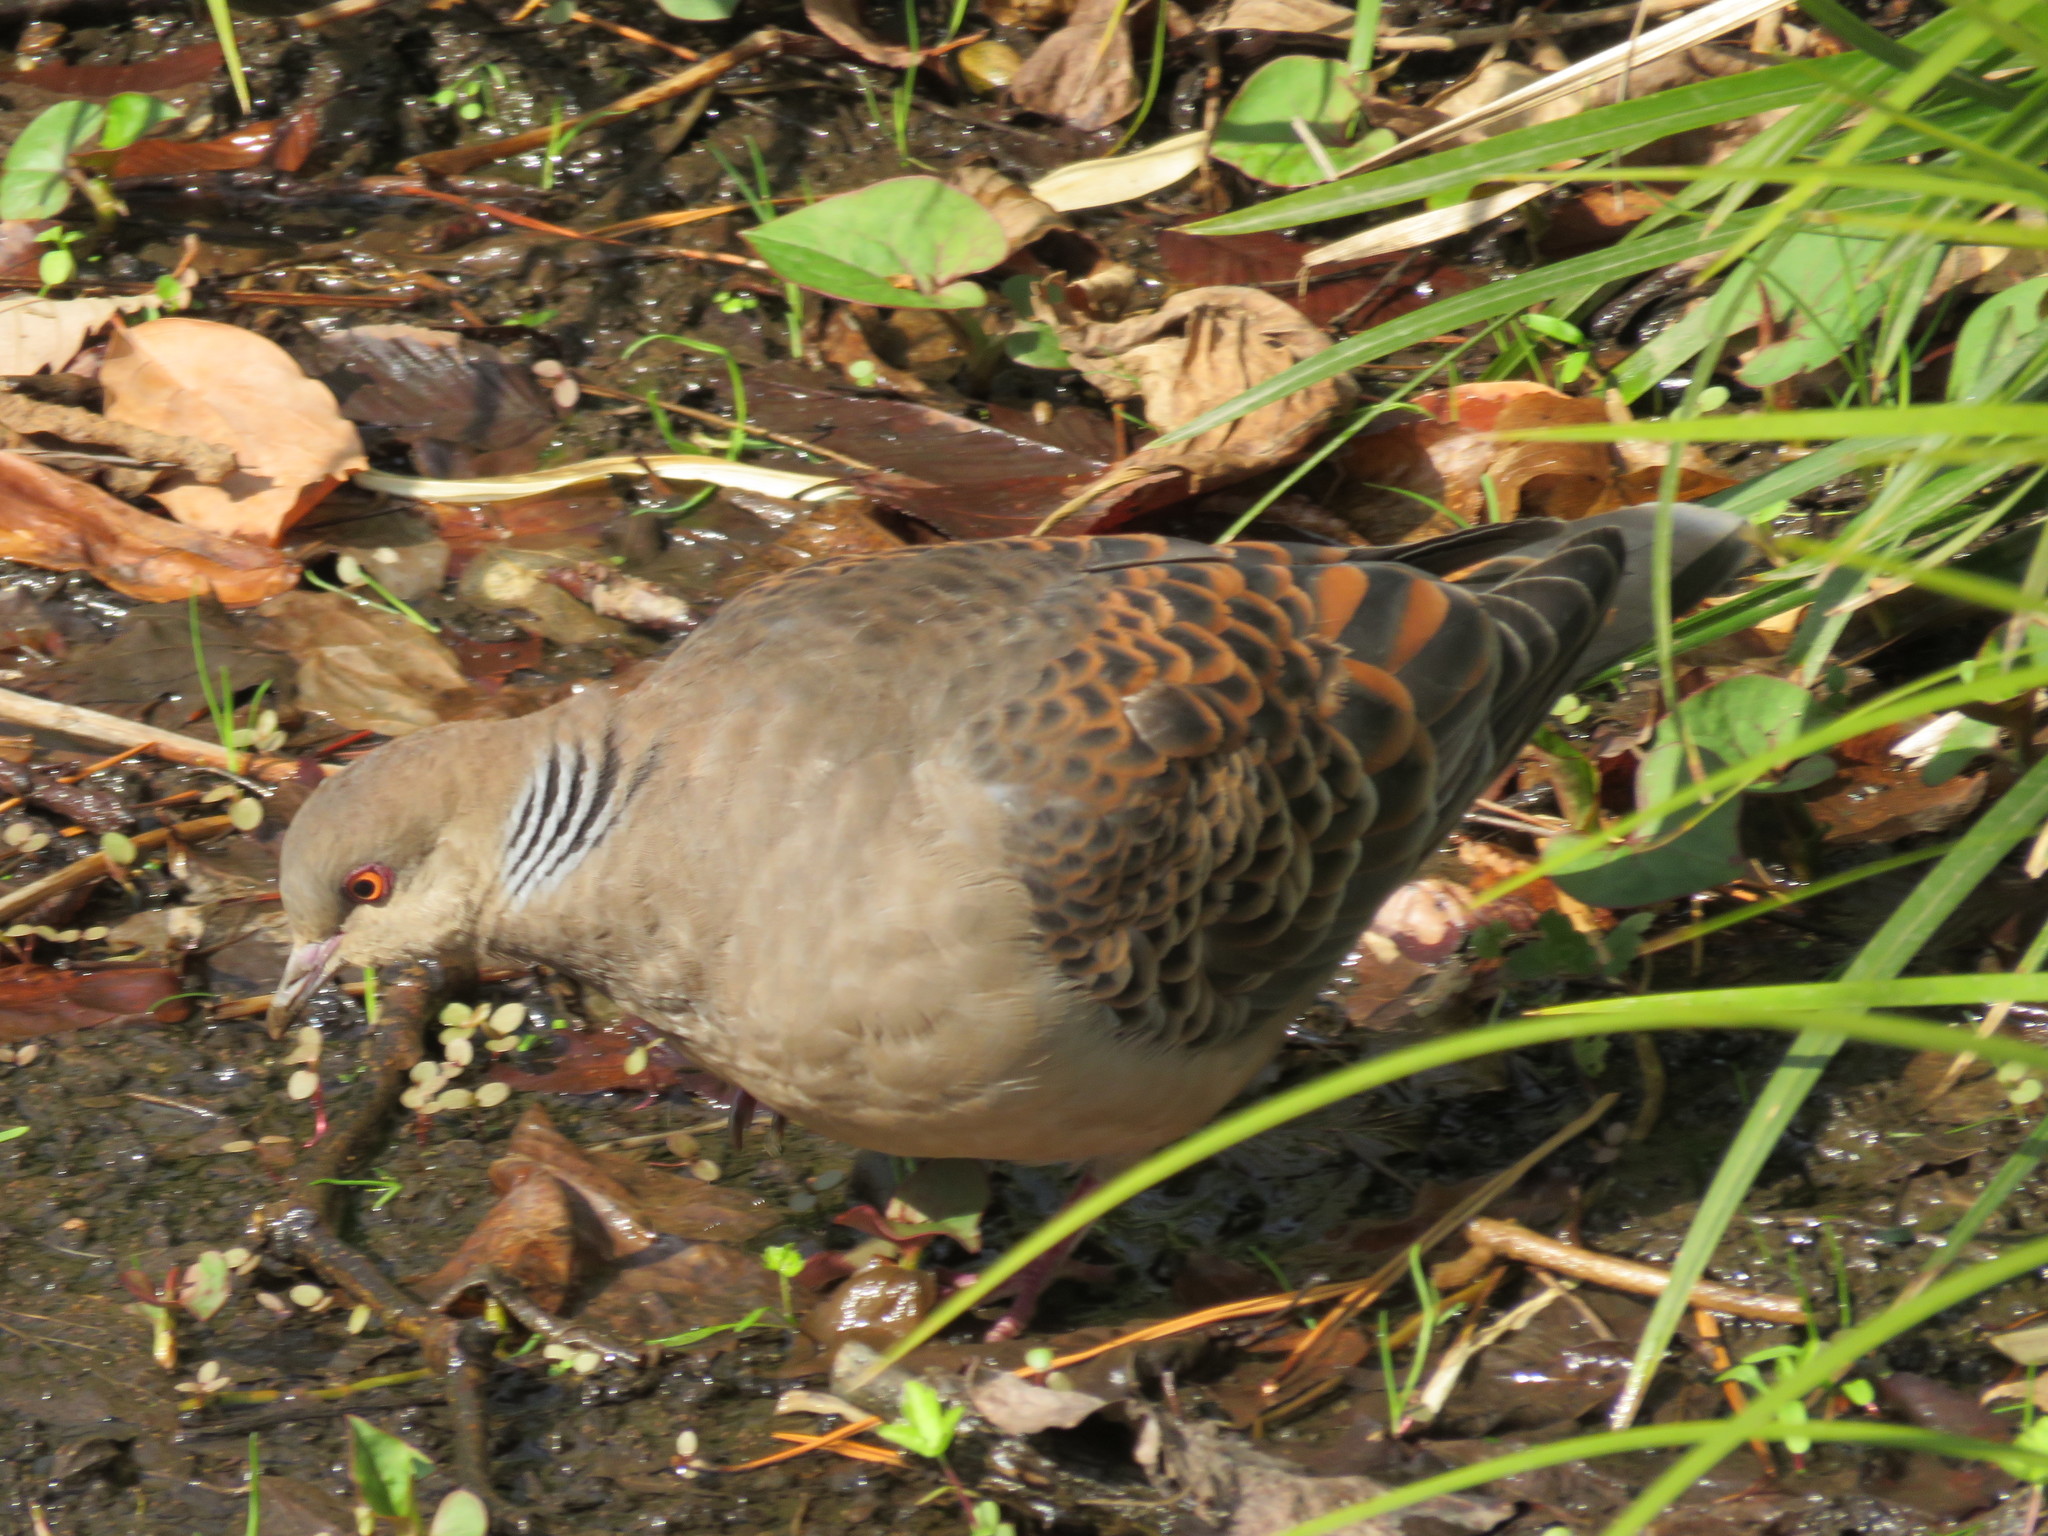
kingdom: Animalia
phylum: Chordata
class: Aves
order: Columbiformes
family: Columbidae
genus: Streptopelia
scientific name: Streptopelia orientalis
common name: Oriental turtle dove
